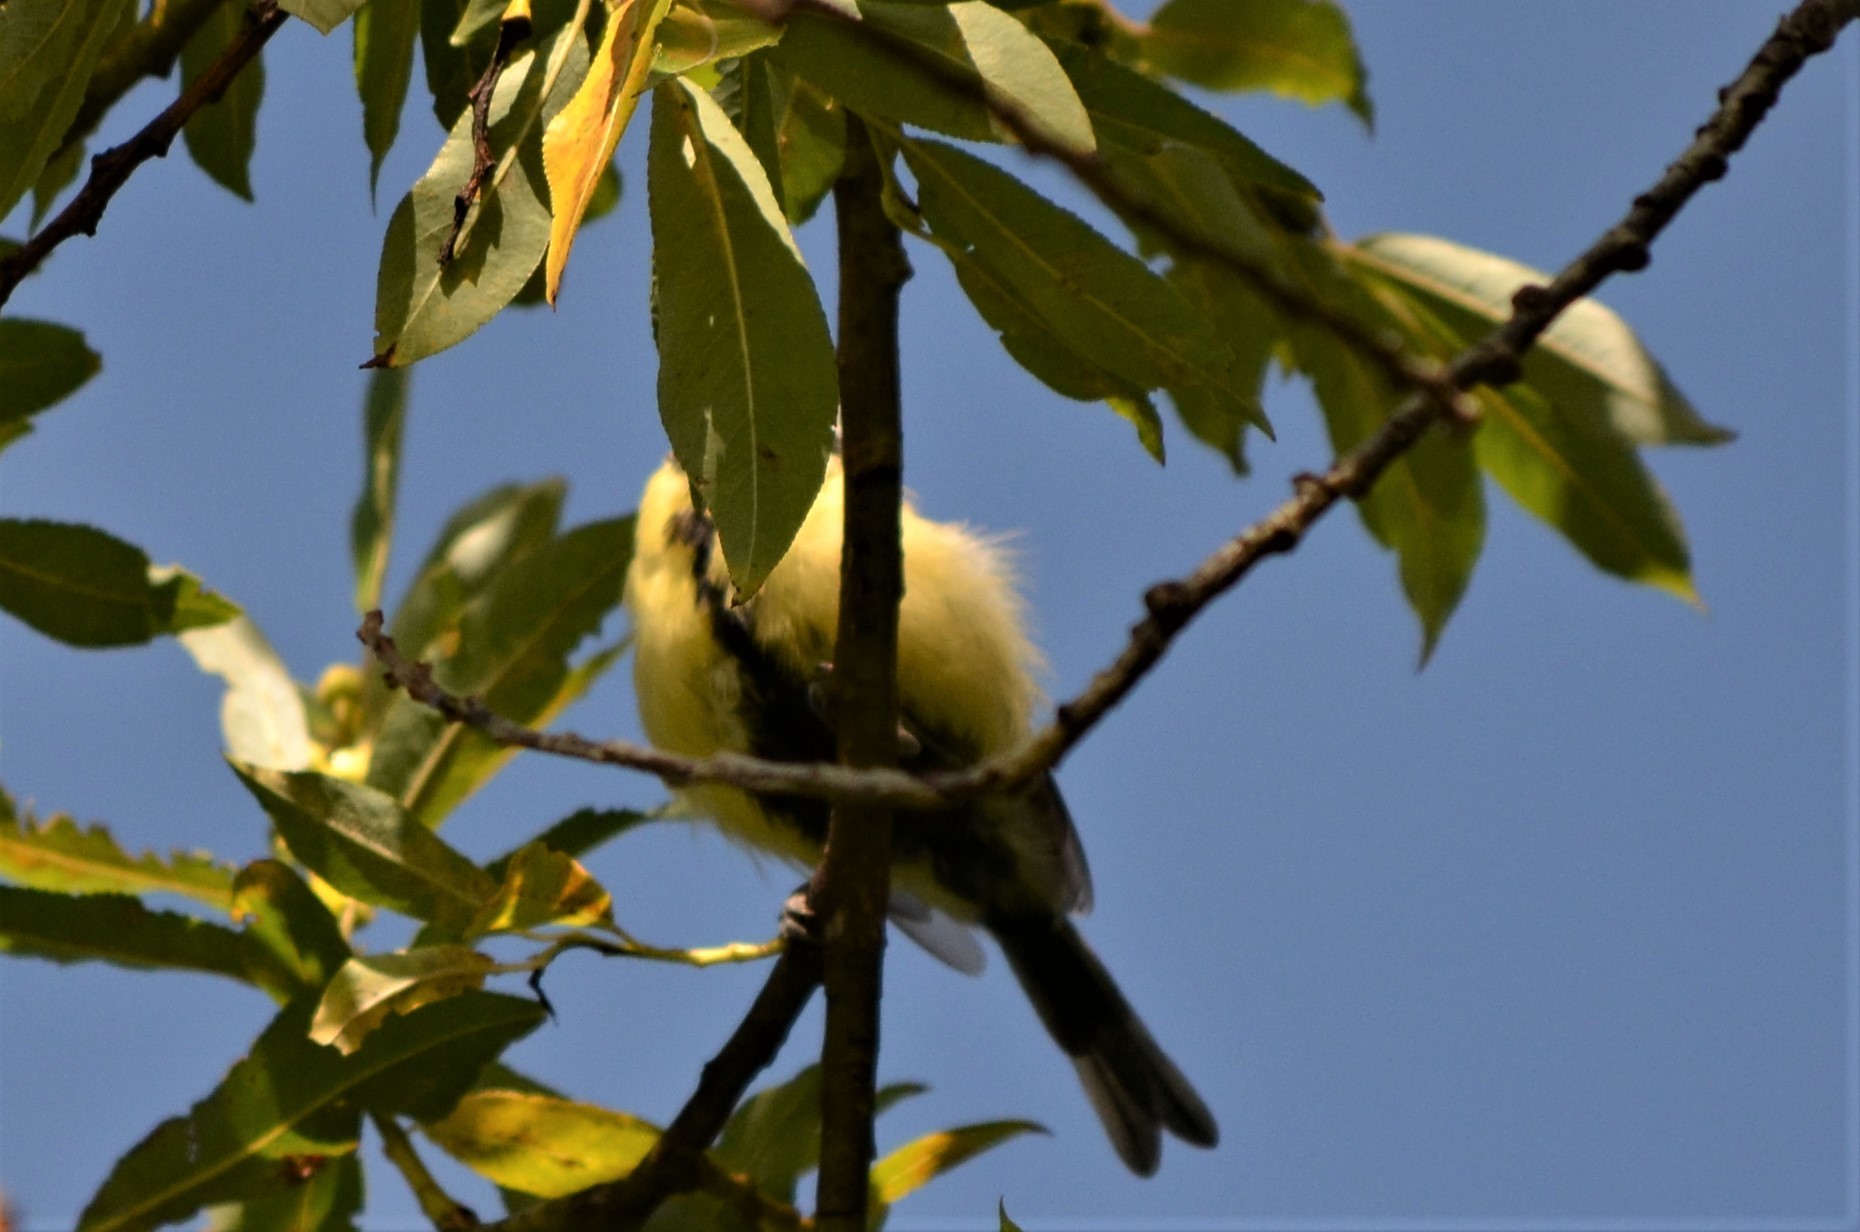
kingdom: Animalia
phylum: Chordata
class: Aves
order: Passeriformes
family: Paridae
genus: Parus
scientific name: Parus major
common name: Great tit
